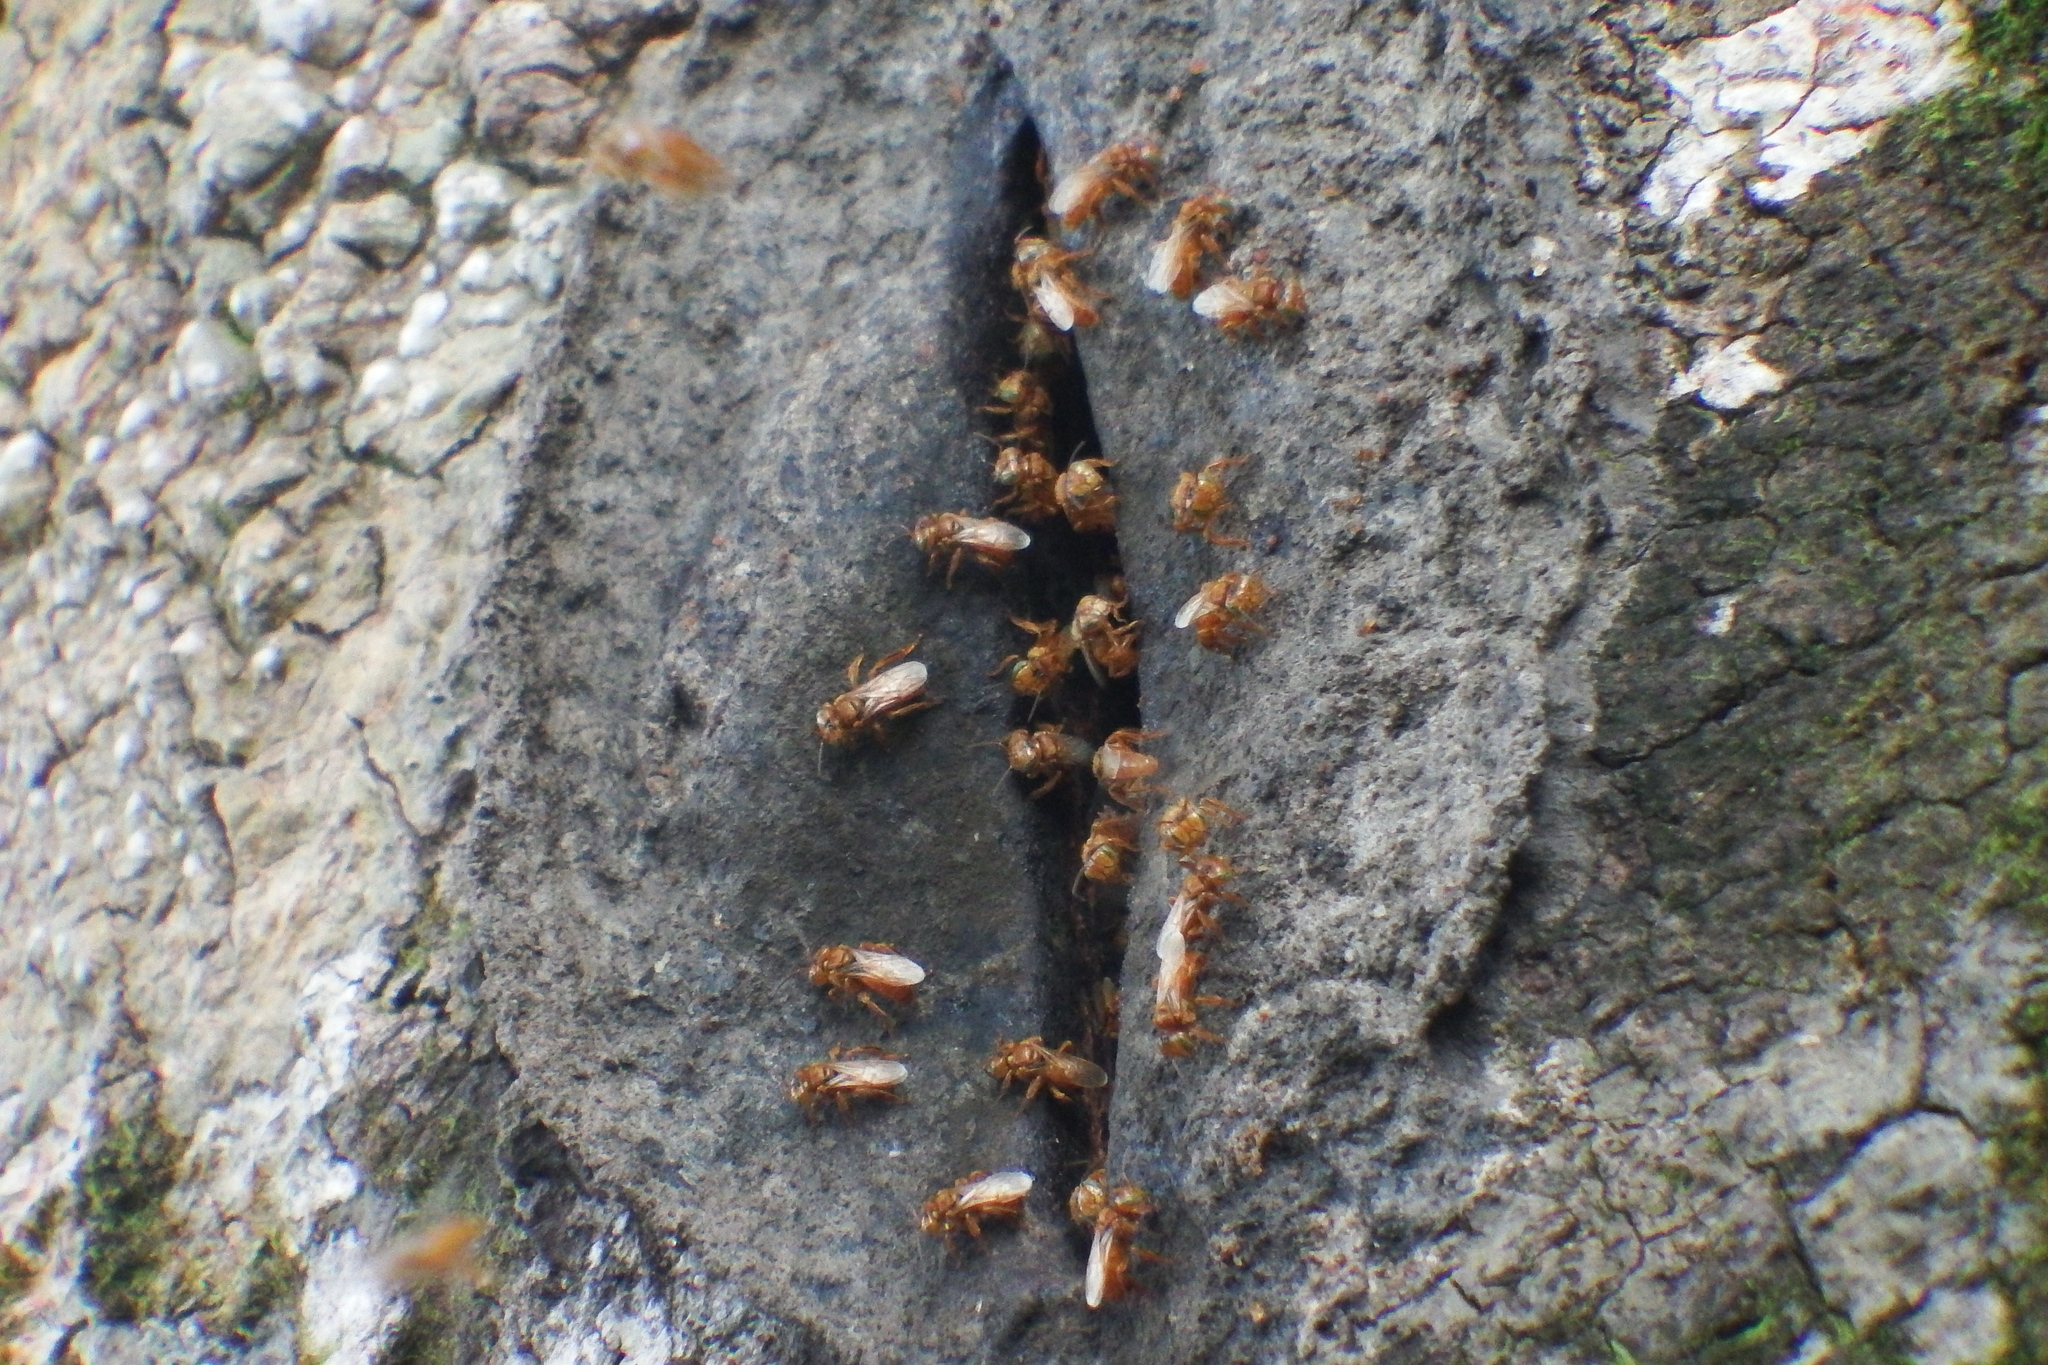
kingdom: Animalia
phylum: Arthropoda
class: Insecta
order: Hymenoptera
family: Apidae
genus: Oxytrigona
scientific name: Oxytrigona mellicolor
